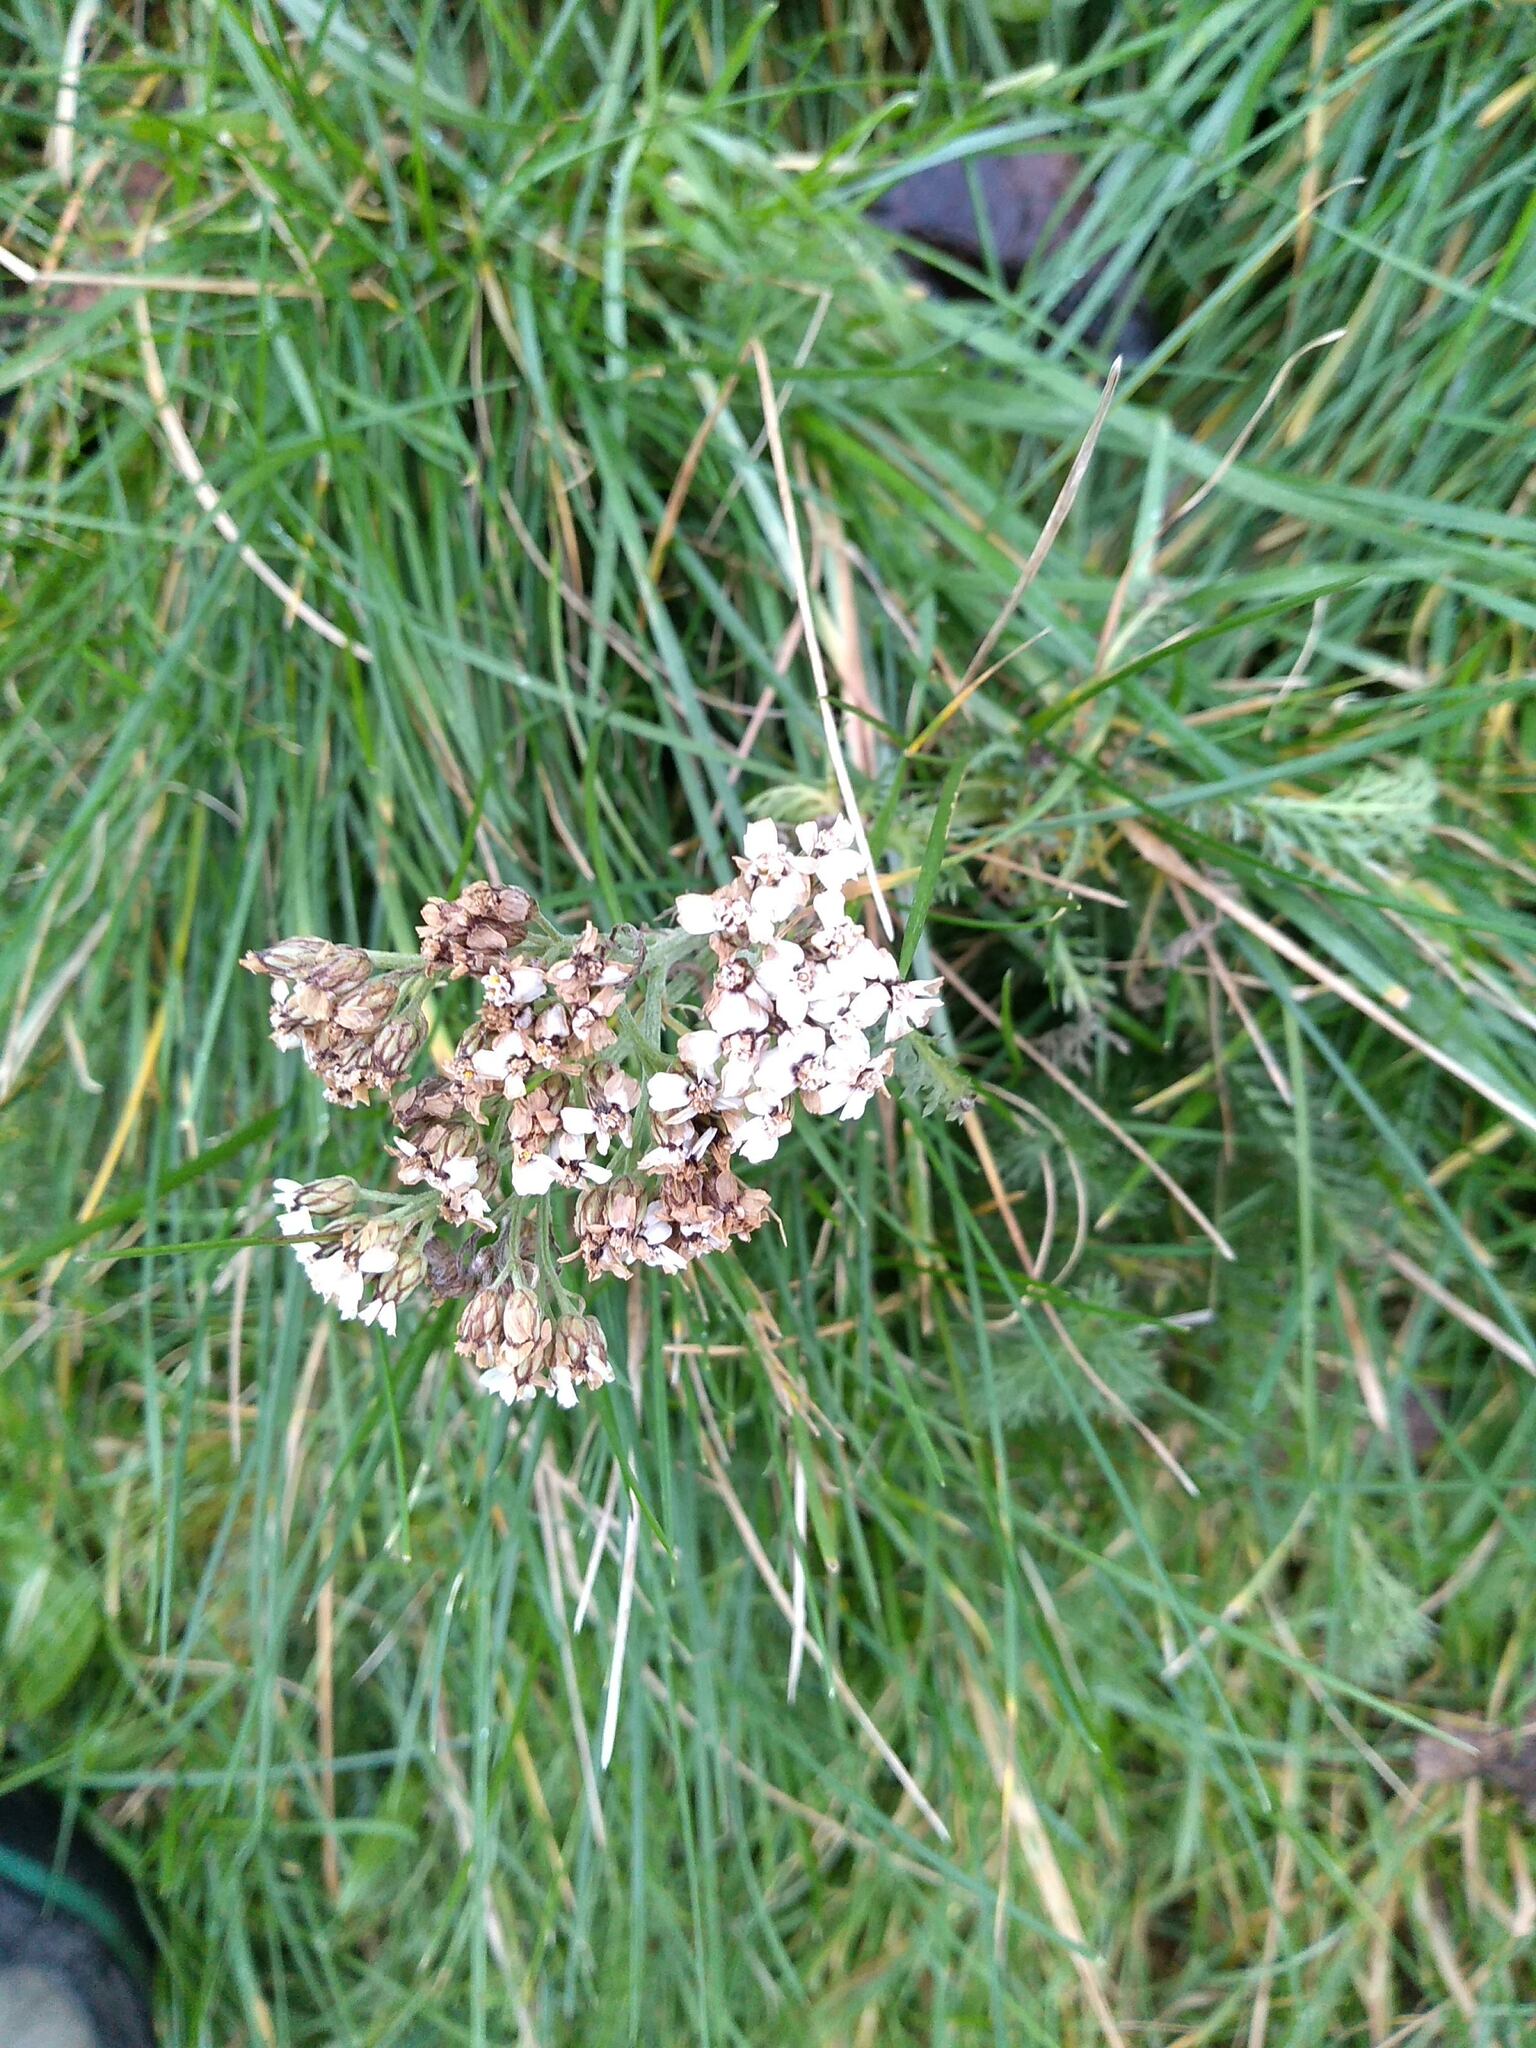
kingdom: Plantae
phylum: Tracheophyta
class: Magnoliopsida
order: Asterales
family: Asteraceae
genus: Achillea
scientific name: Achillea millefolium
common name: Yarrow
